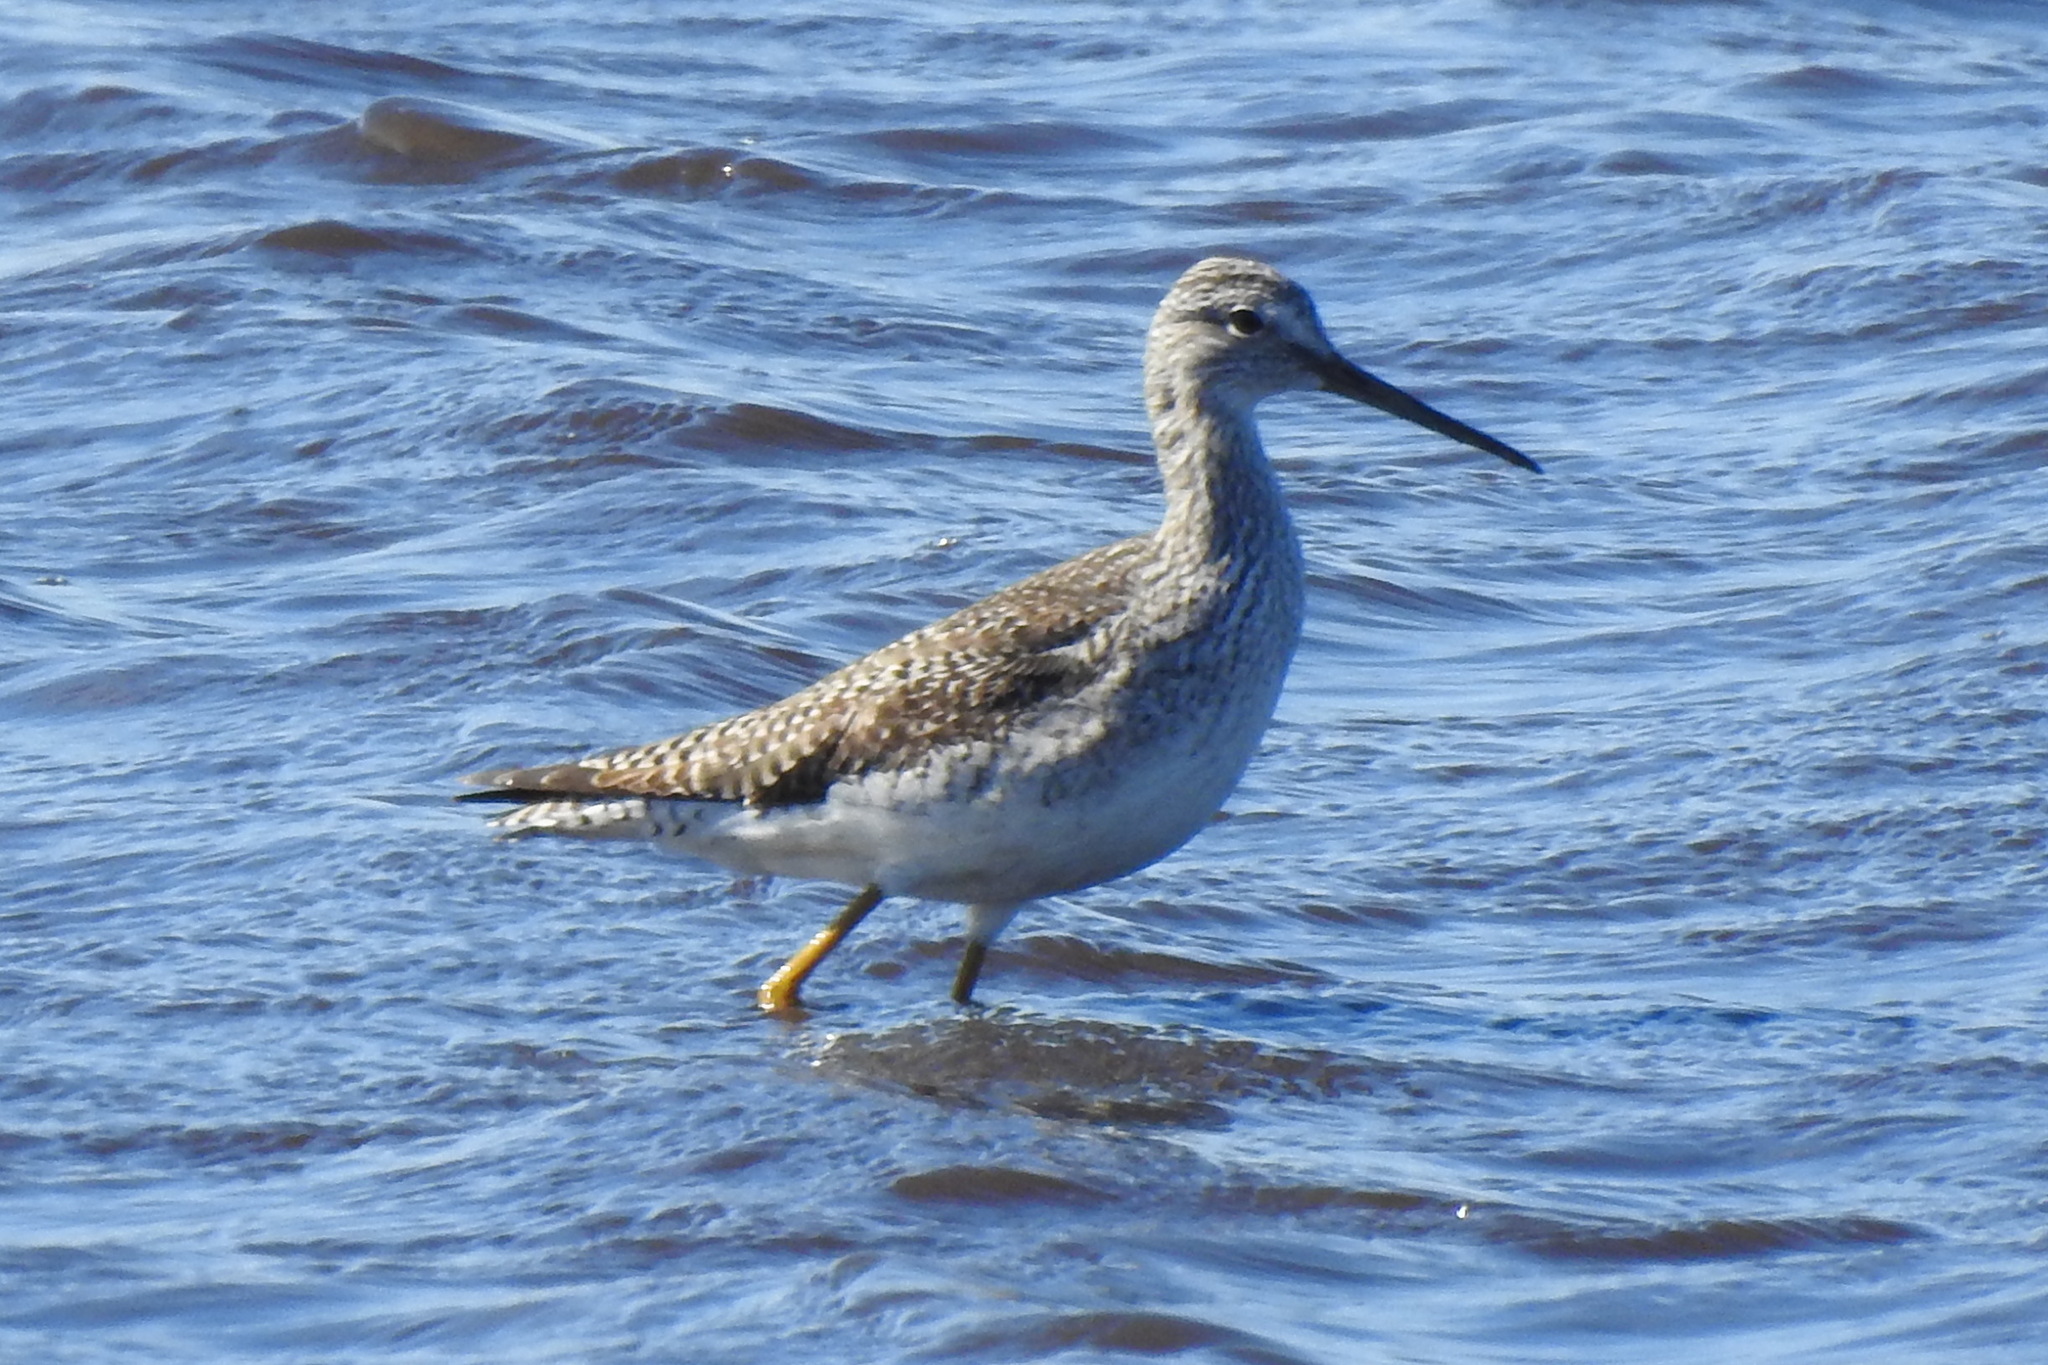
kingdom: Animalia
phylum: Chordata
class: Aves
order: Charadriiformes
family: Scolopacidae
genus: Tringa
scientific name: Tringa melanoleuca
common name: Greater yellowlegs
